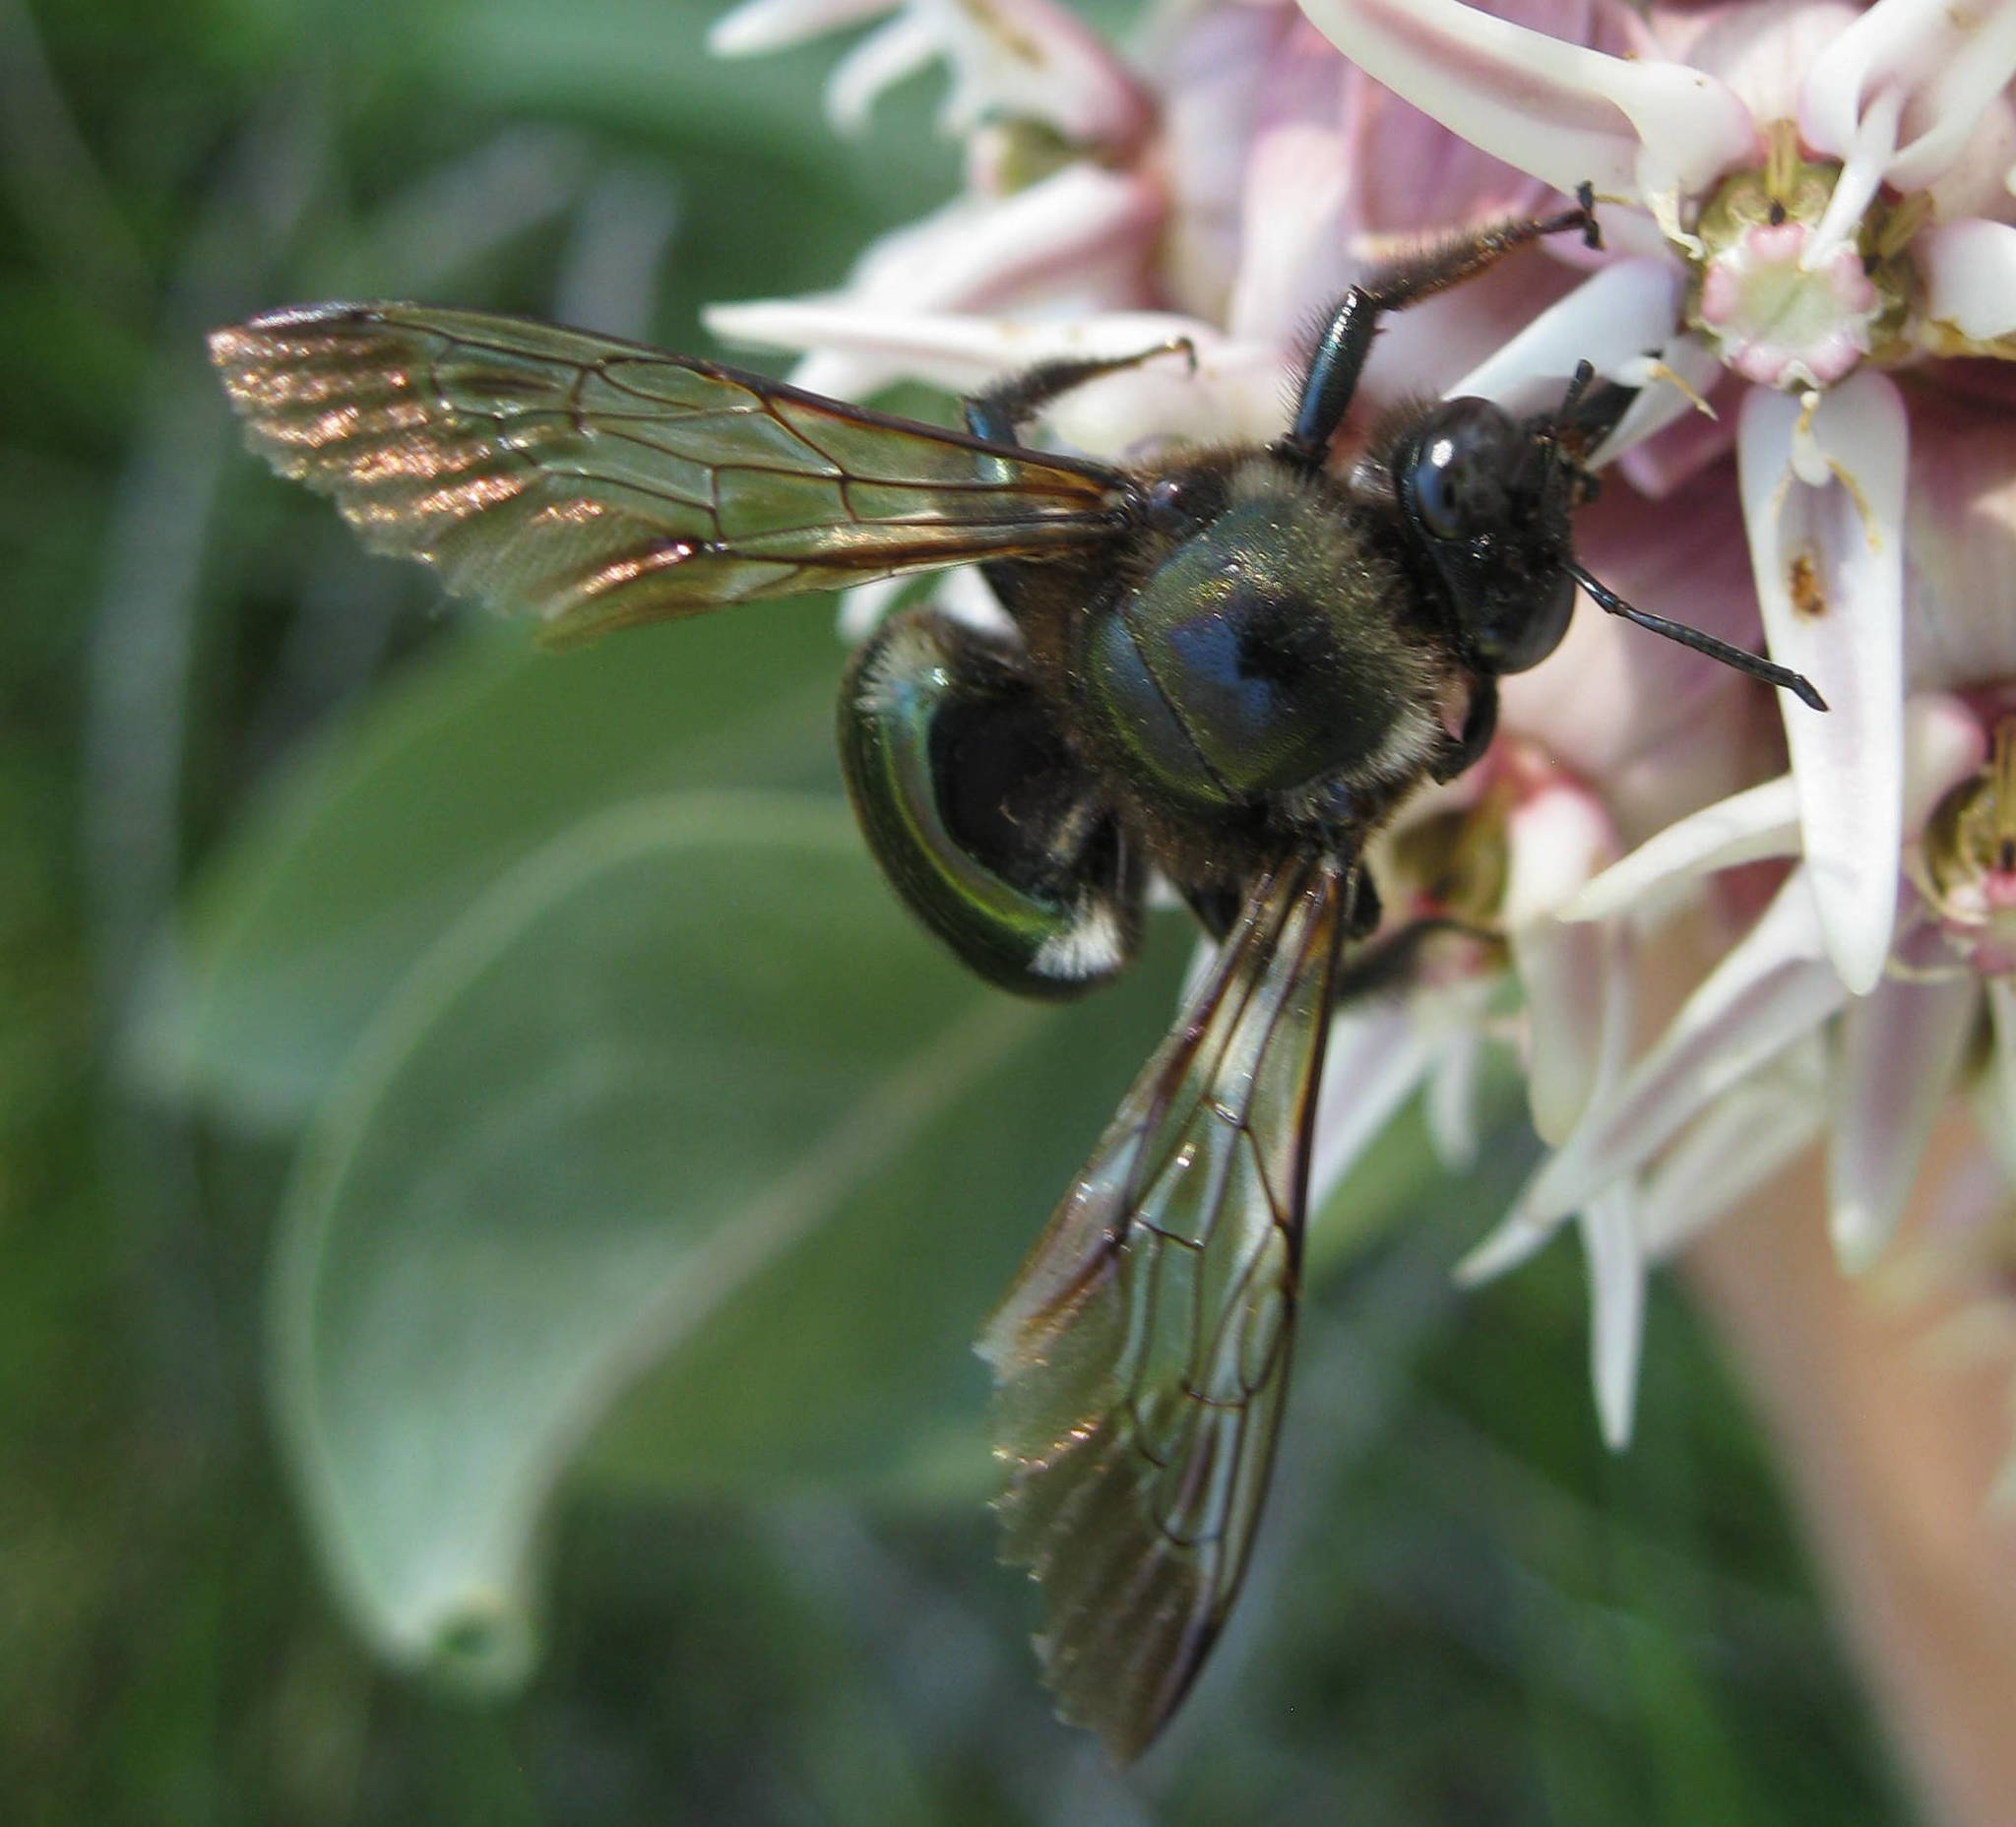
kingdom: Animalia
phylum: Arthropoda
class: Insecta
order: Hymenoptera
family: Apidae
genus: Xylocopa
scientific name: Xylocopa californica
